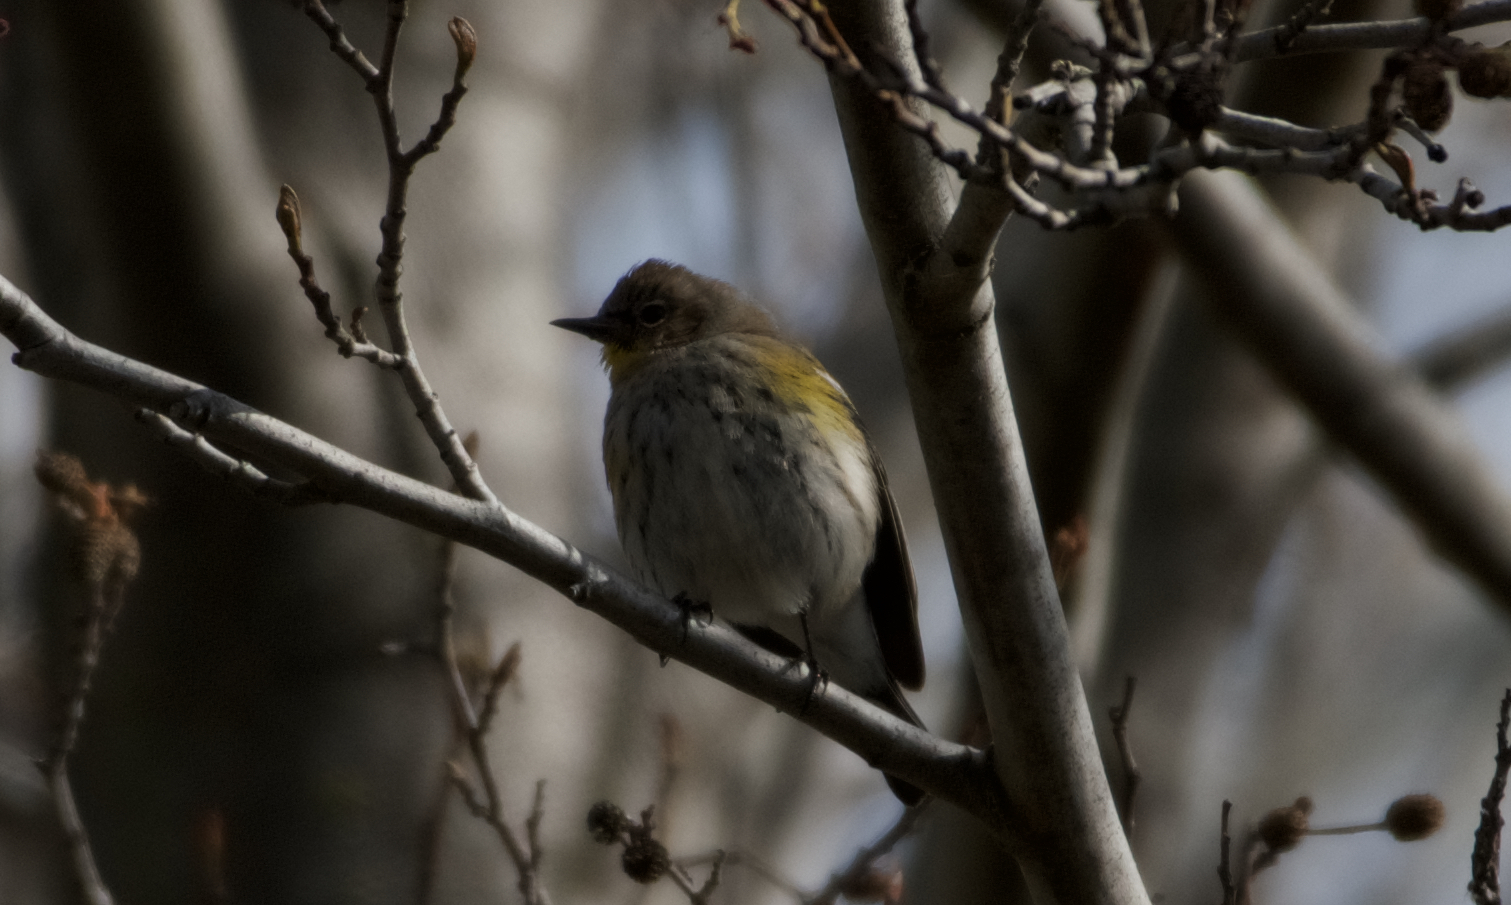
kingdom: Animalia
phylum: Chordata
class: Aves
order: Passeriformes
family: Parulidae
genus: Setophaga
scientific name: Setophaga coronata
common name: Myrtle warbler
